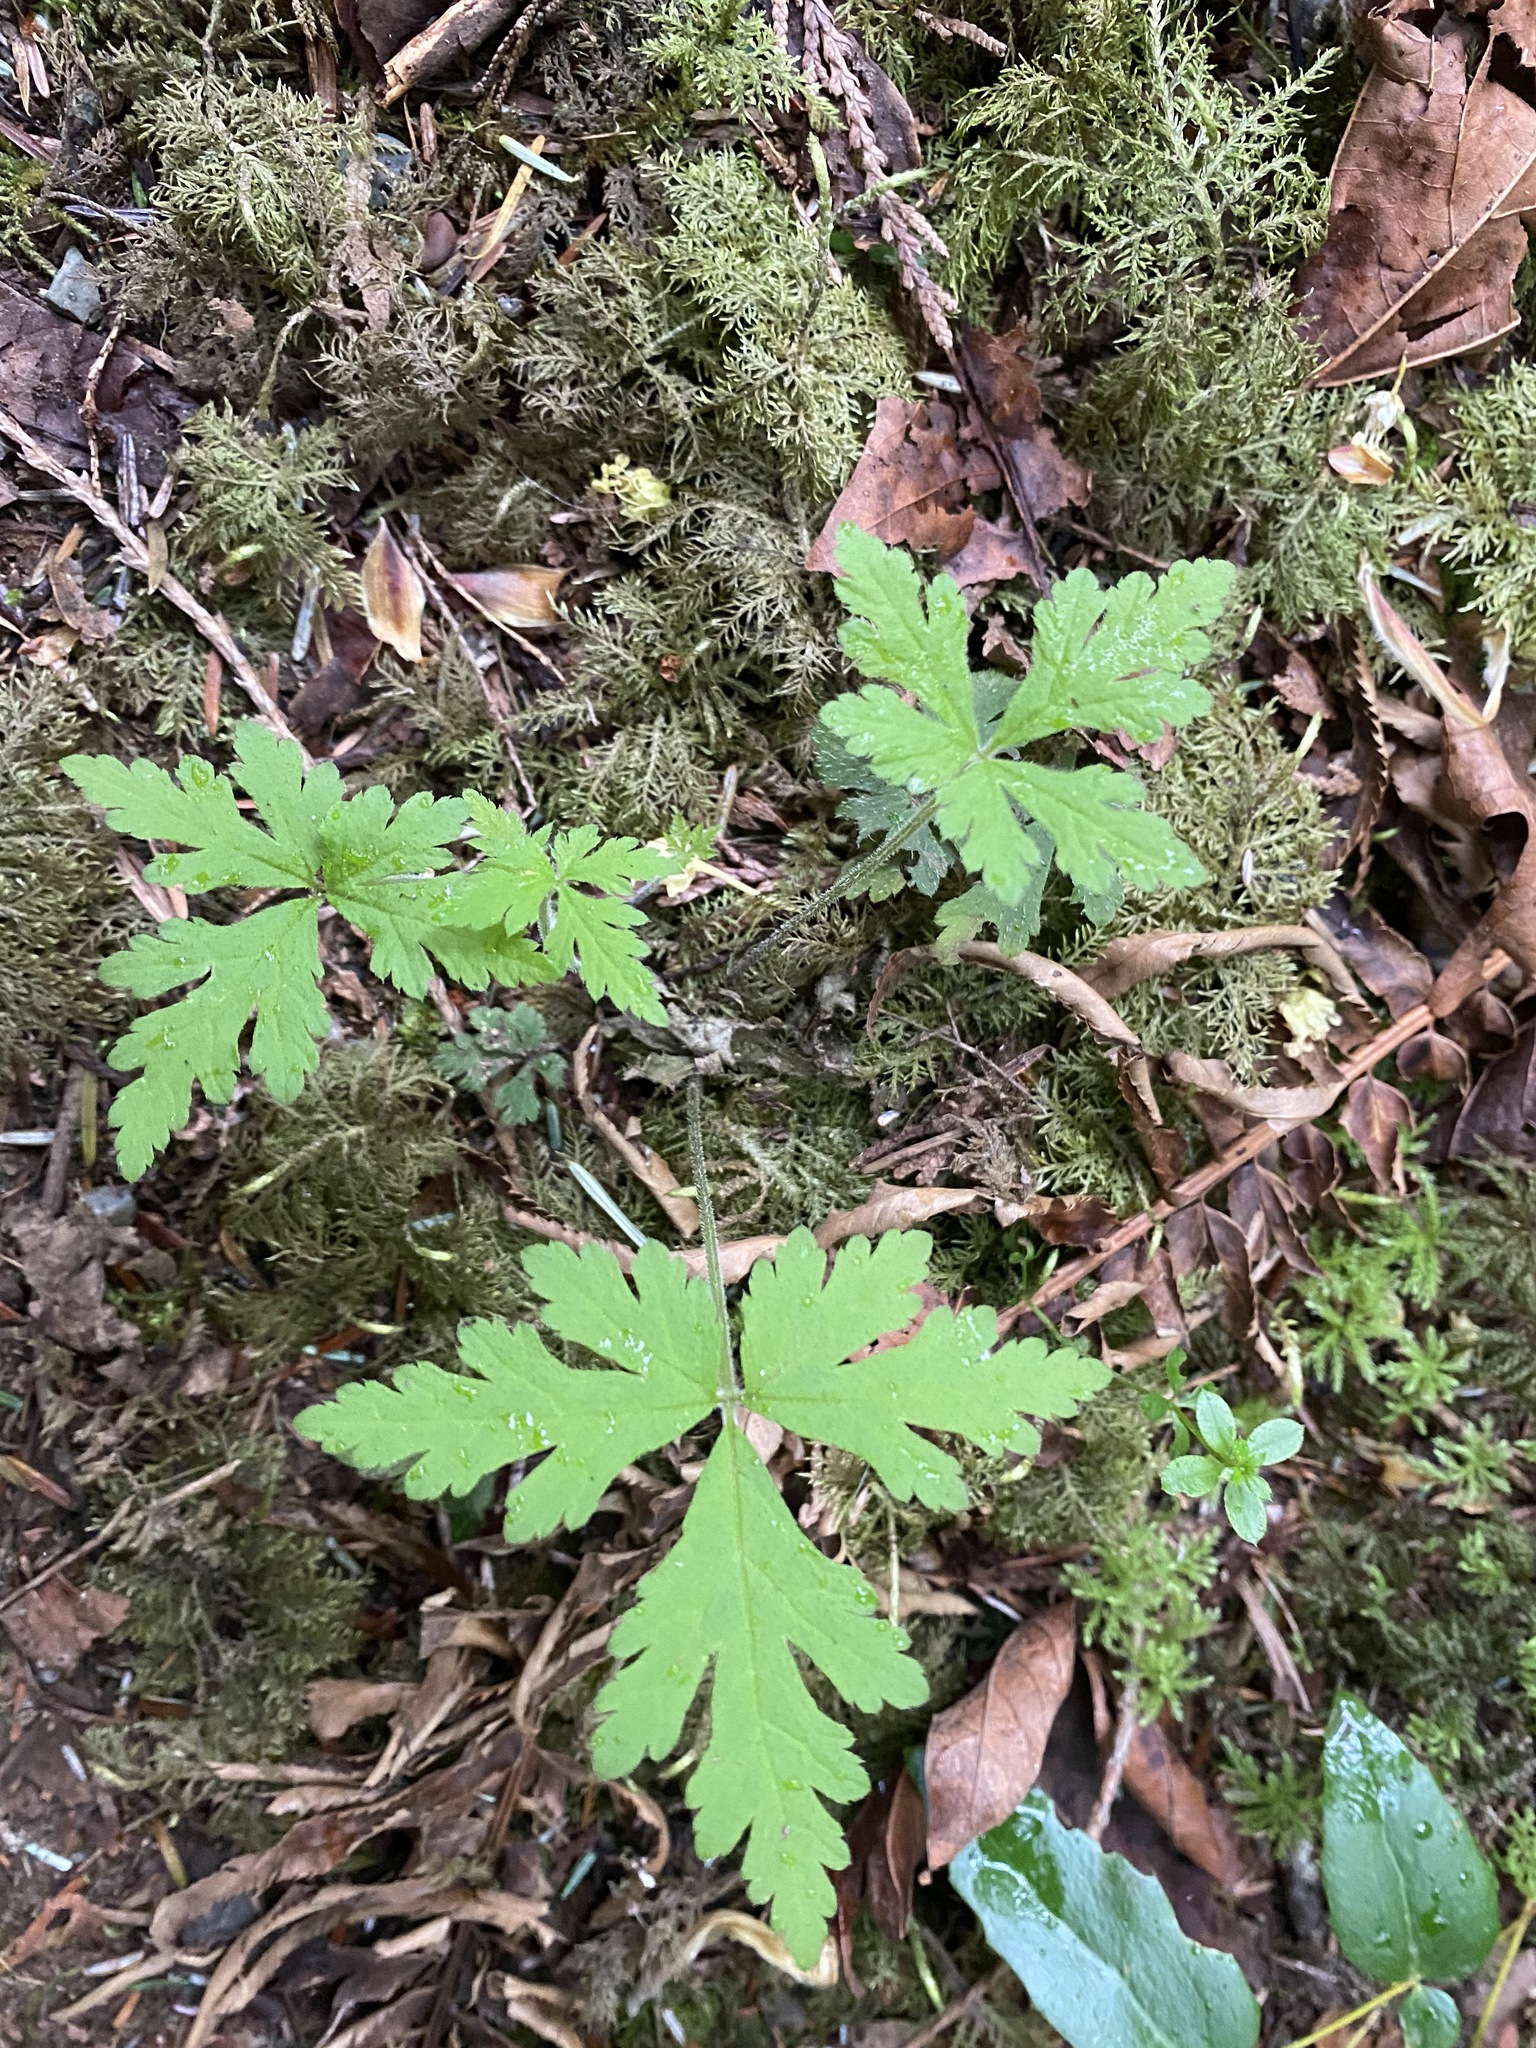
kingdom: Plantae
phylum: Tracheophyta
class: Magnoliopsida
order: Saxifragales
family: Saxifragaceae
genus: Tiarella
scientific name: Tiarella trifoliata
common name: Sugar-scoop
